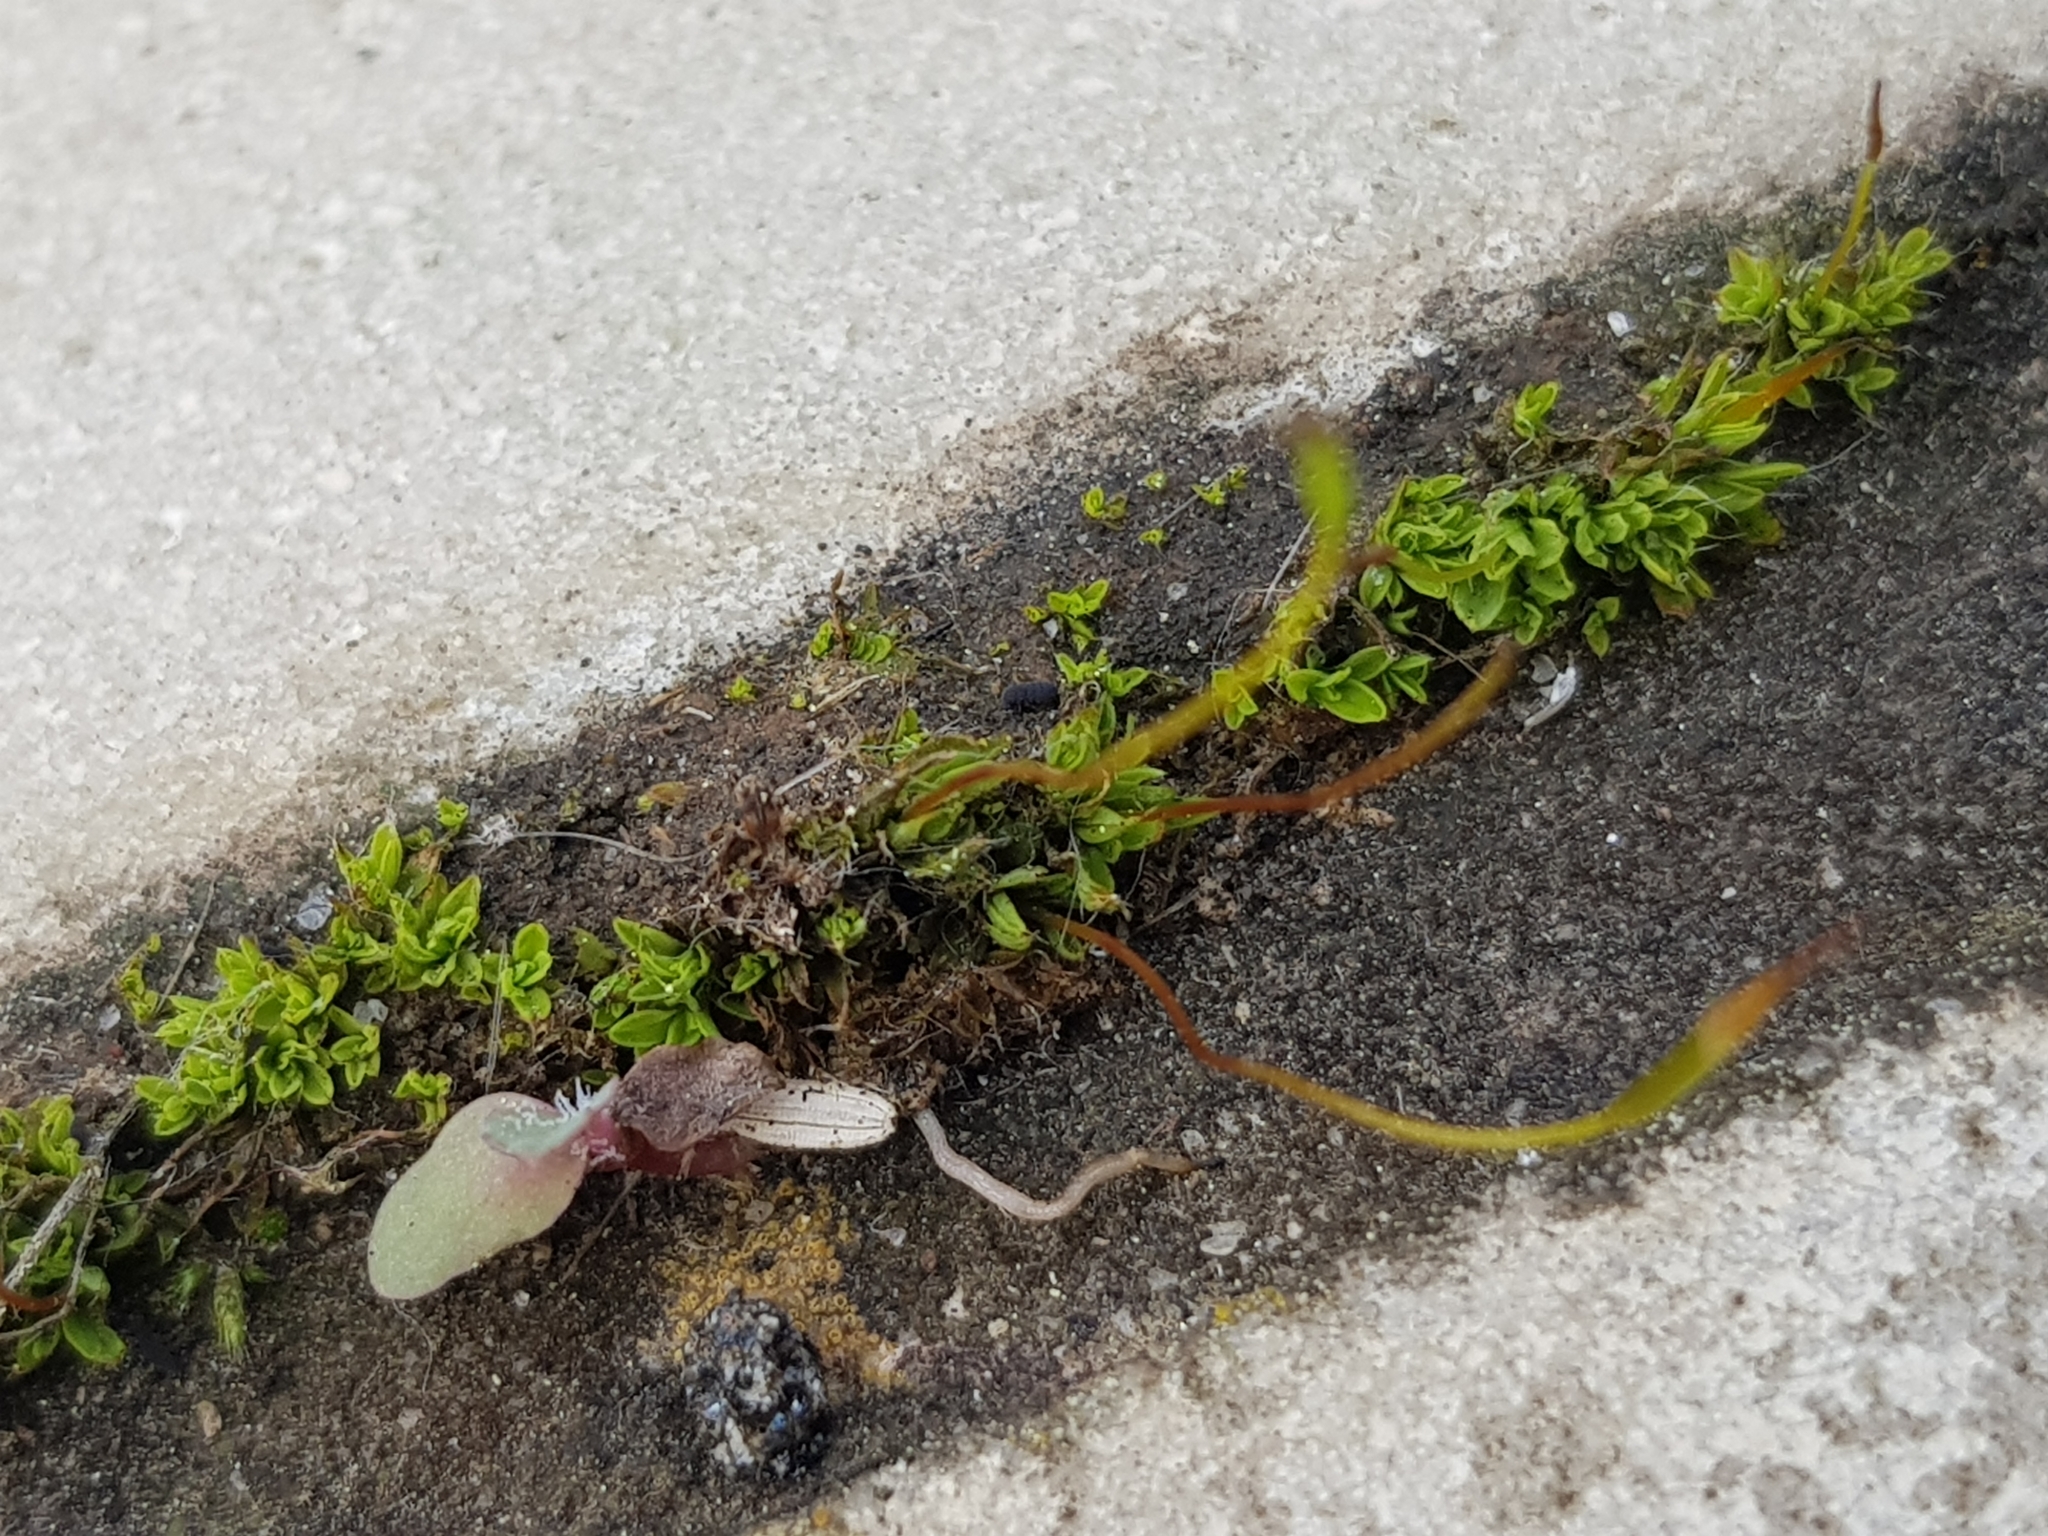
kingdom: Plantae
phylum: Bryophyta
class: Bryopsida
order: Pottiales
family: Pottiaceae
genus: Tortula
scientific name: Tortula muralis
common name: Wall screw-moss
